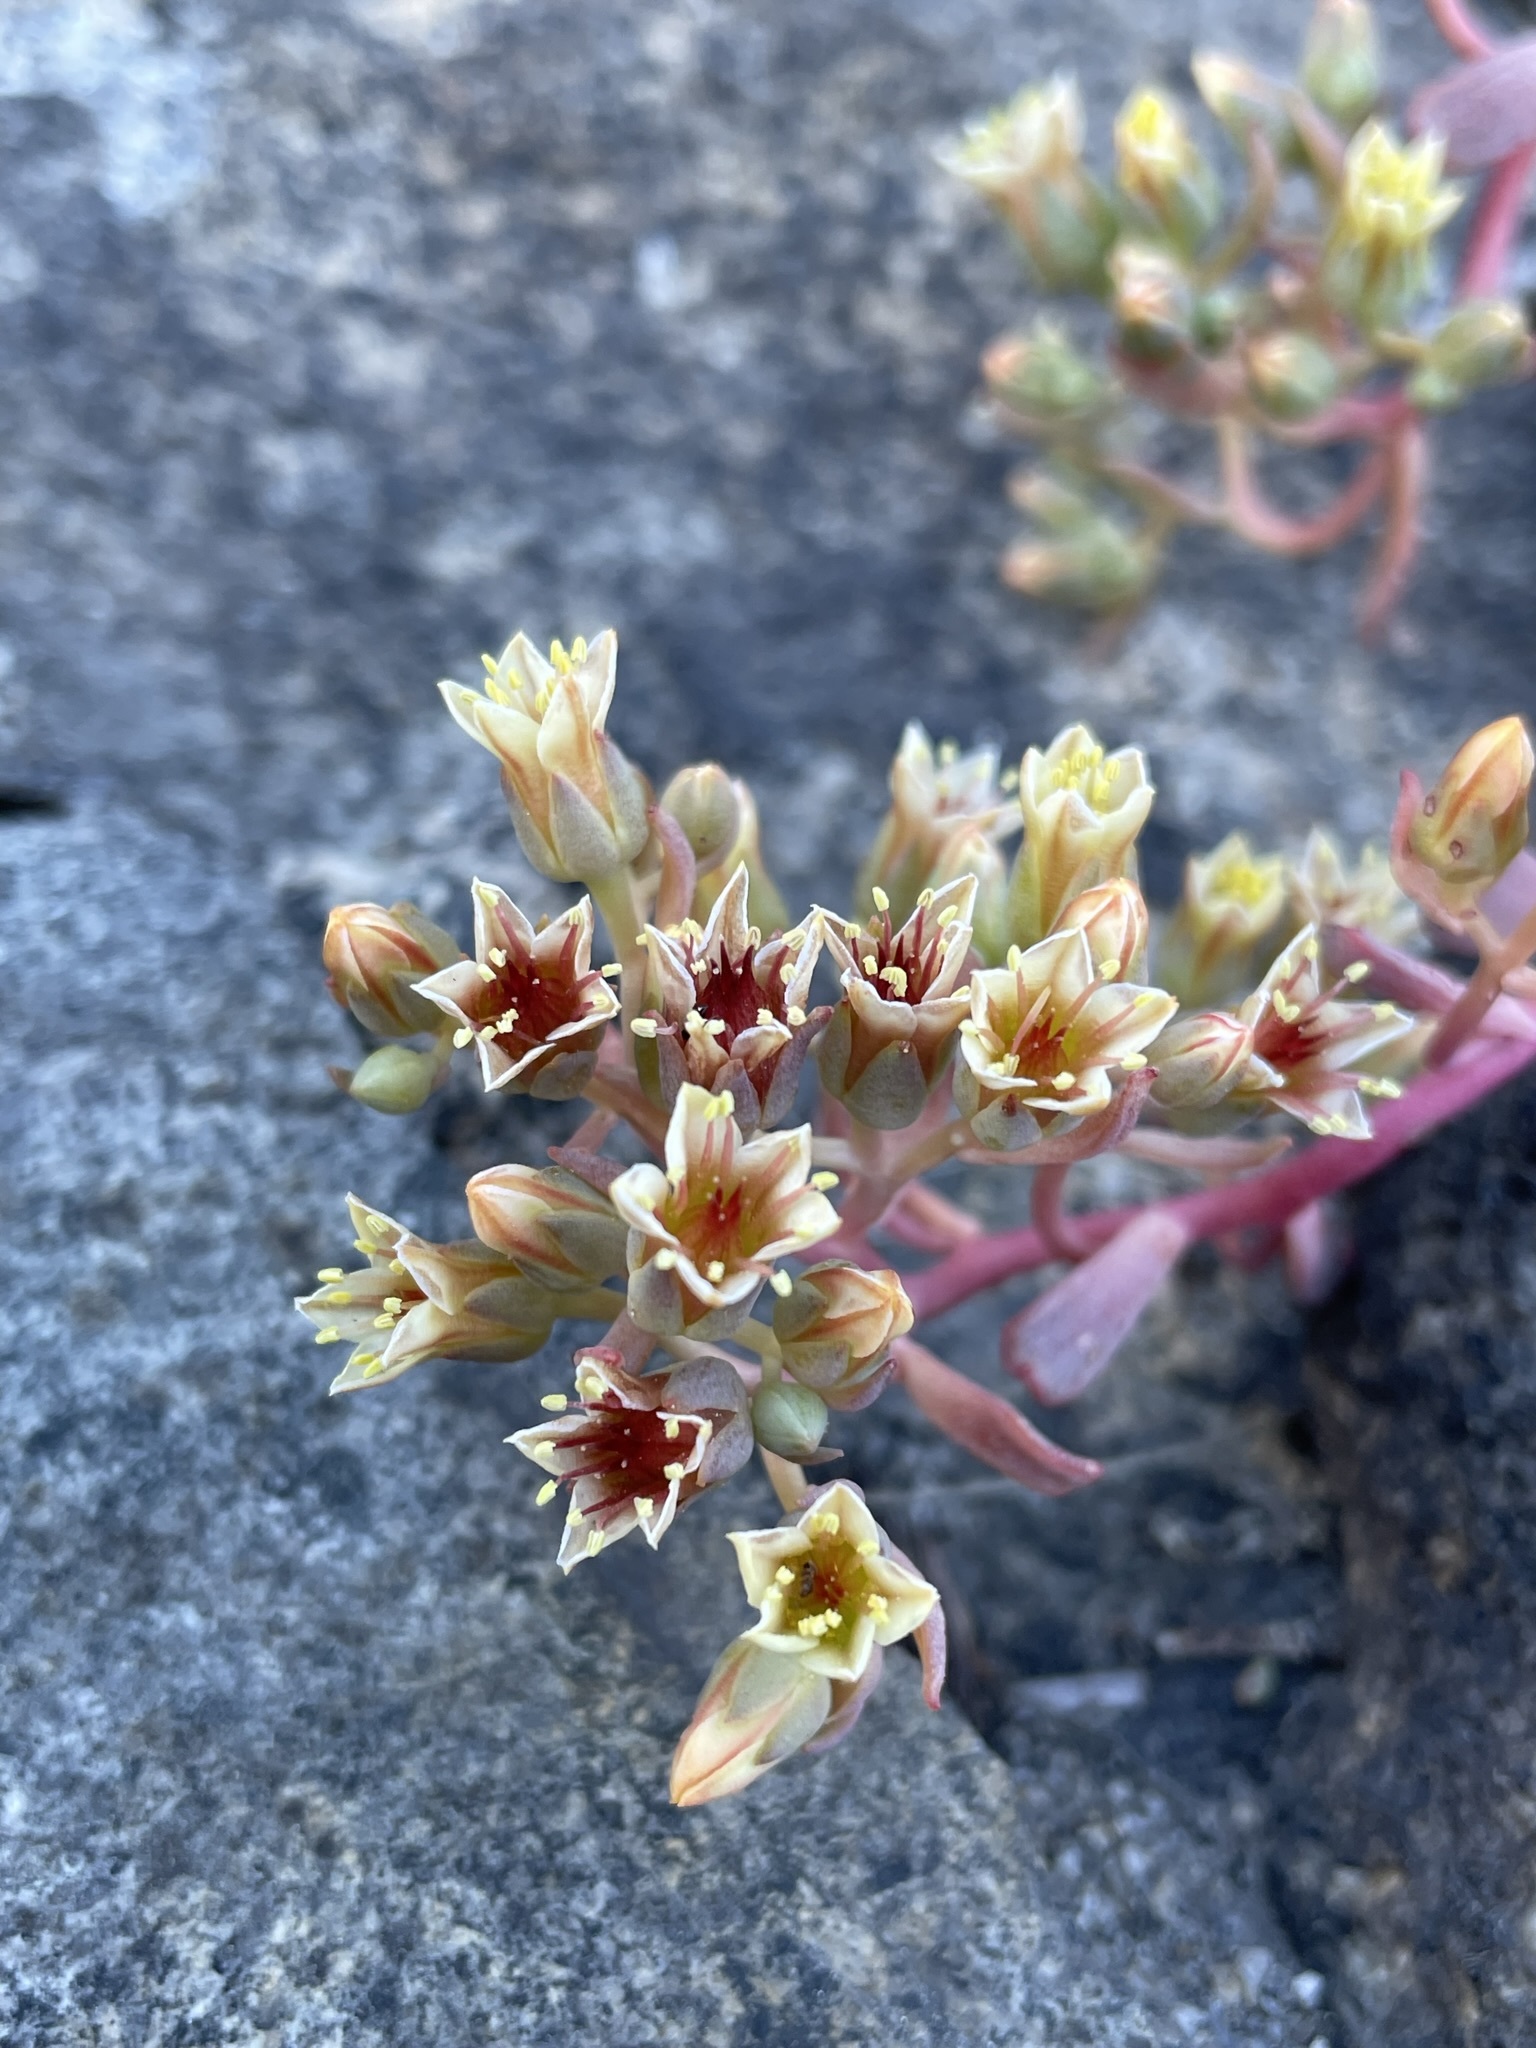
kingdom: Plantae
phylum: Tracheophyta
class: Magnoliopsida
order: Saxifragales
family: Crassulaceae
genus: Sedum
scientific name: Sedum obtusatum
